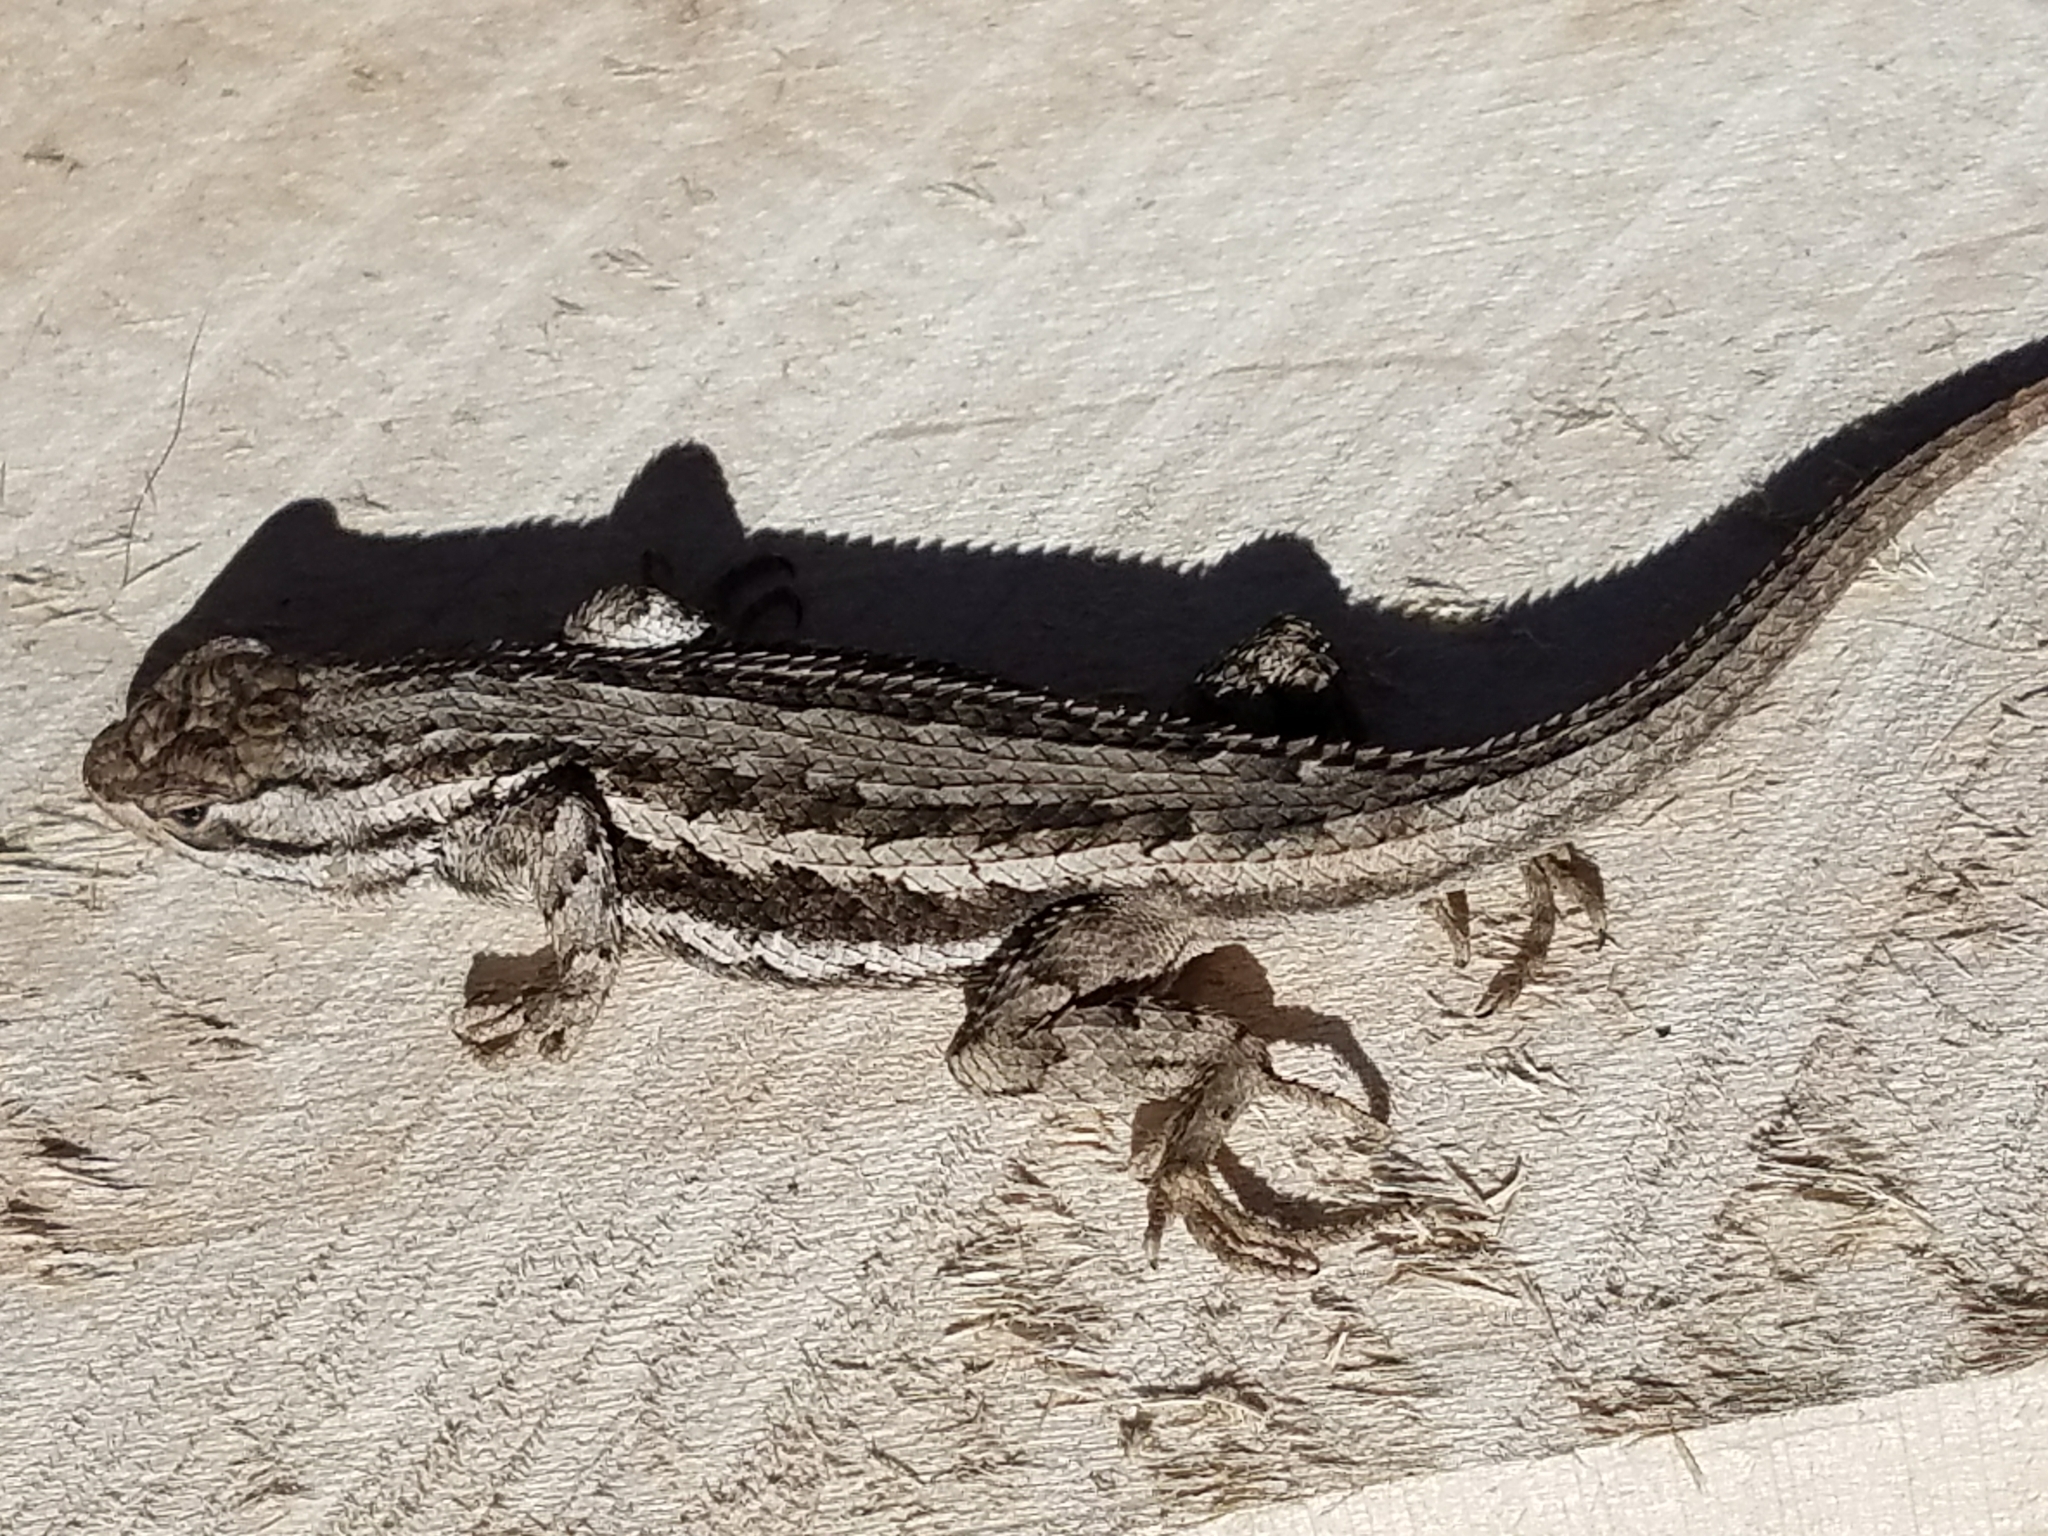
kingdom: Animalia
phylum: Chordata
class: Squamata
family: Phrynosomatidae
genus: Sceloporus
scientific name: Sceloporus cowlesi
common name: White sands prairie lizard
